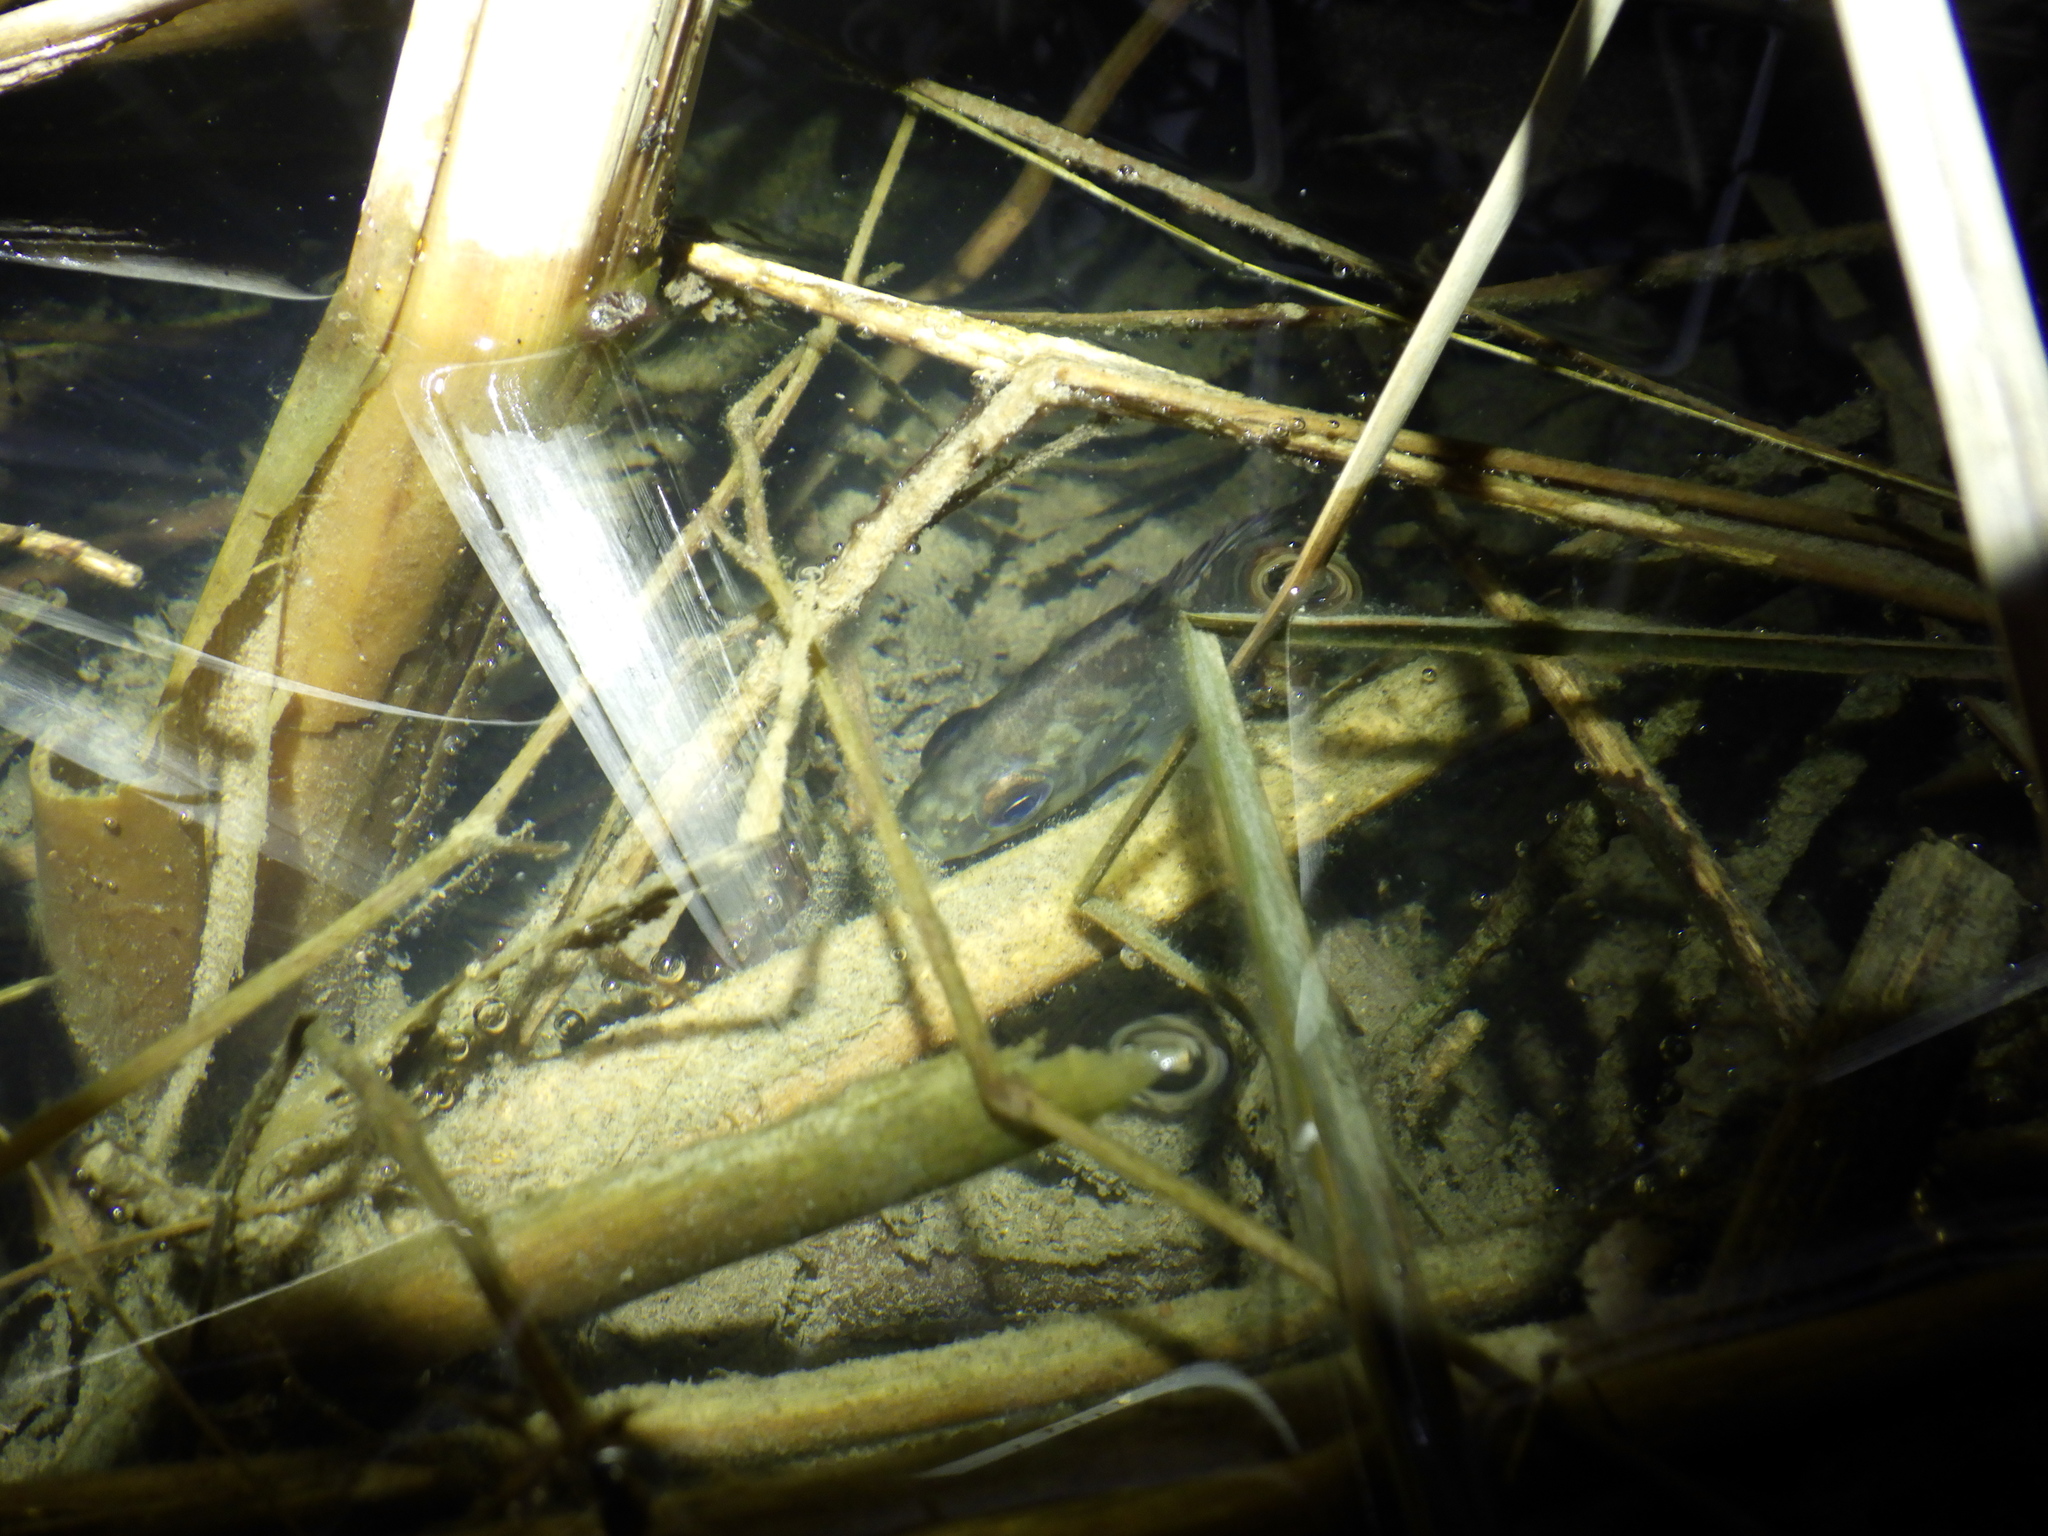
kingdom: Animalia
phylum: Chordata
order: Perciformes
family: Centrarchidae
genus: Ambloplites
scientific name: Ambloplites rupestris
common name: Rock bass
